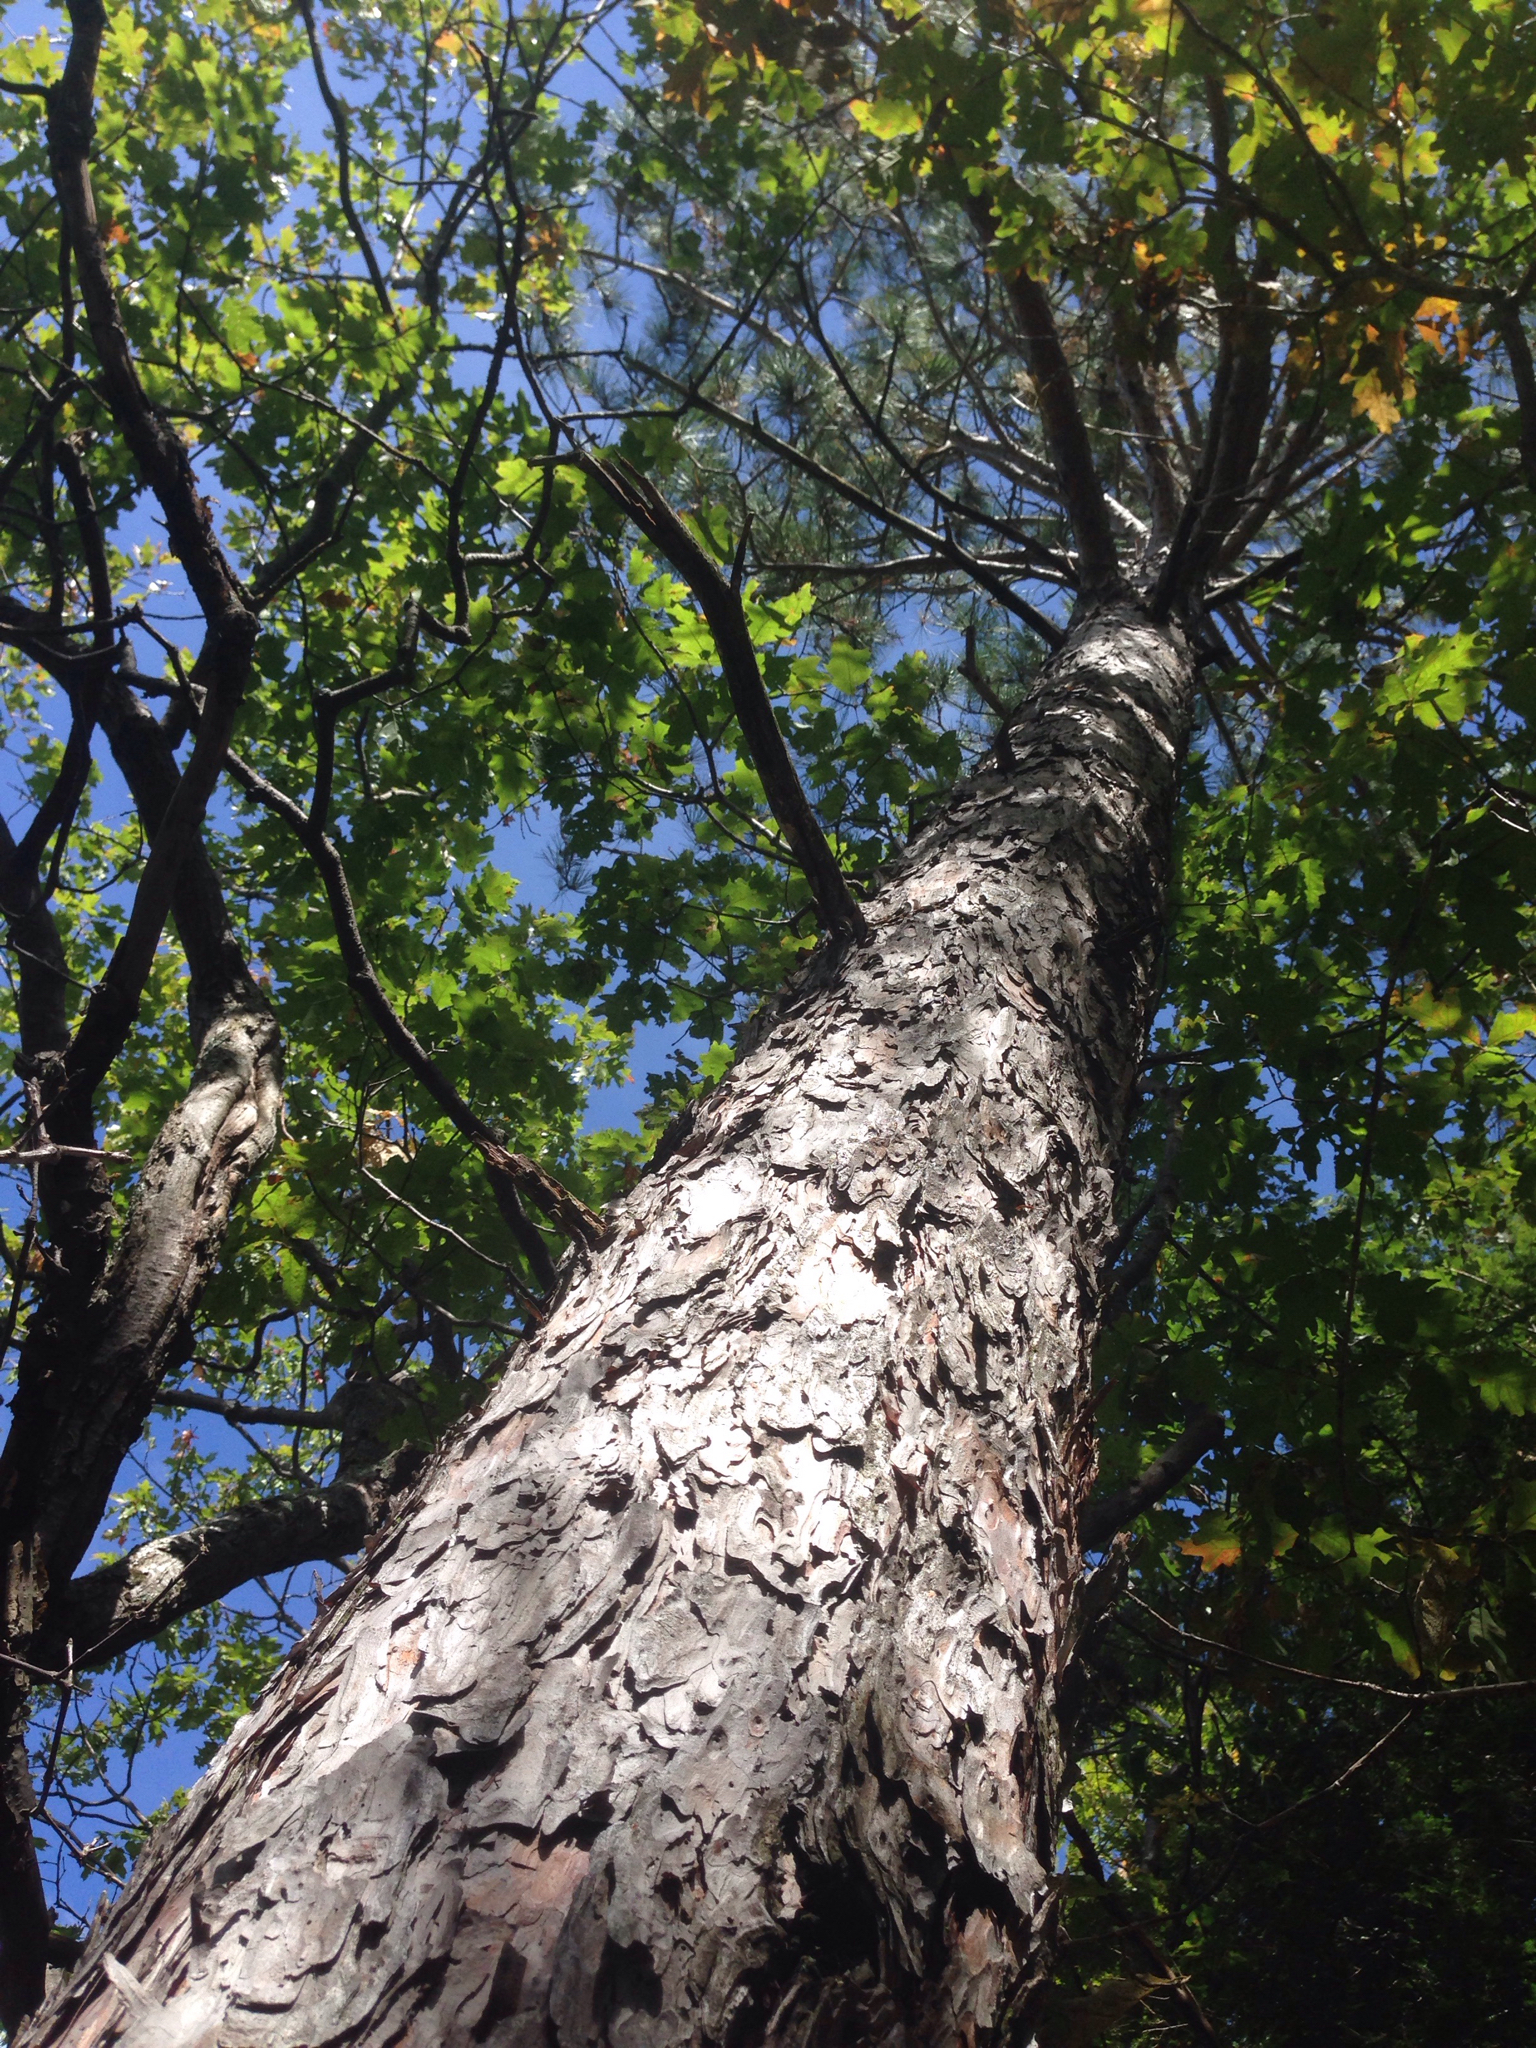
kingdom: Plantae
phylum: Tracheophyta
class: Pinopsida
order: Pinales
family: Pinaceae
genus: Pinus
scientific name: Pinus resinosa
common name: Norway pine
